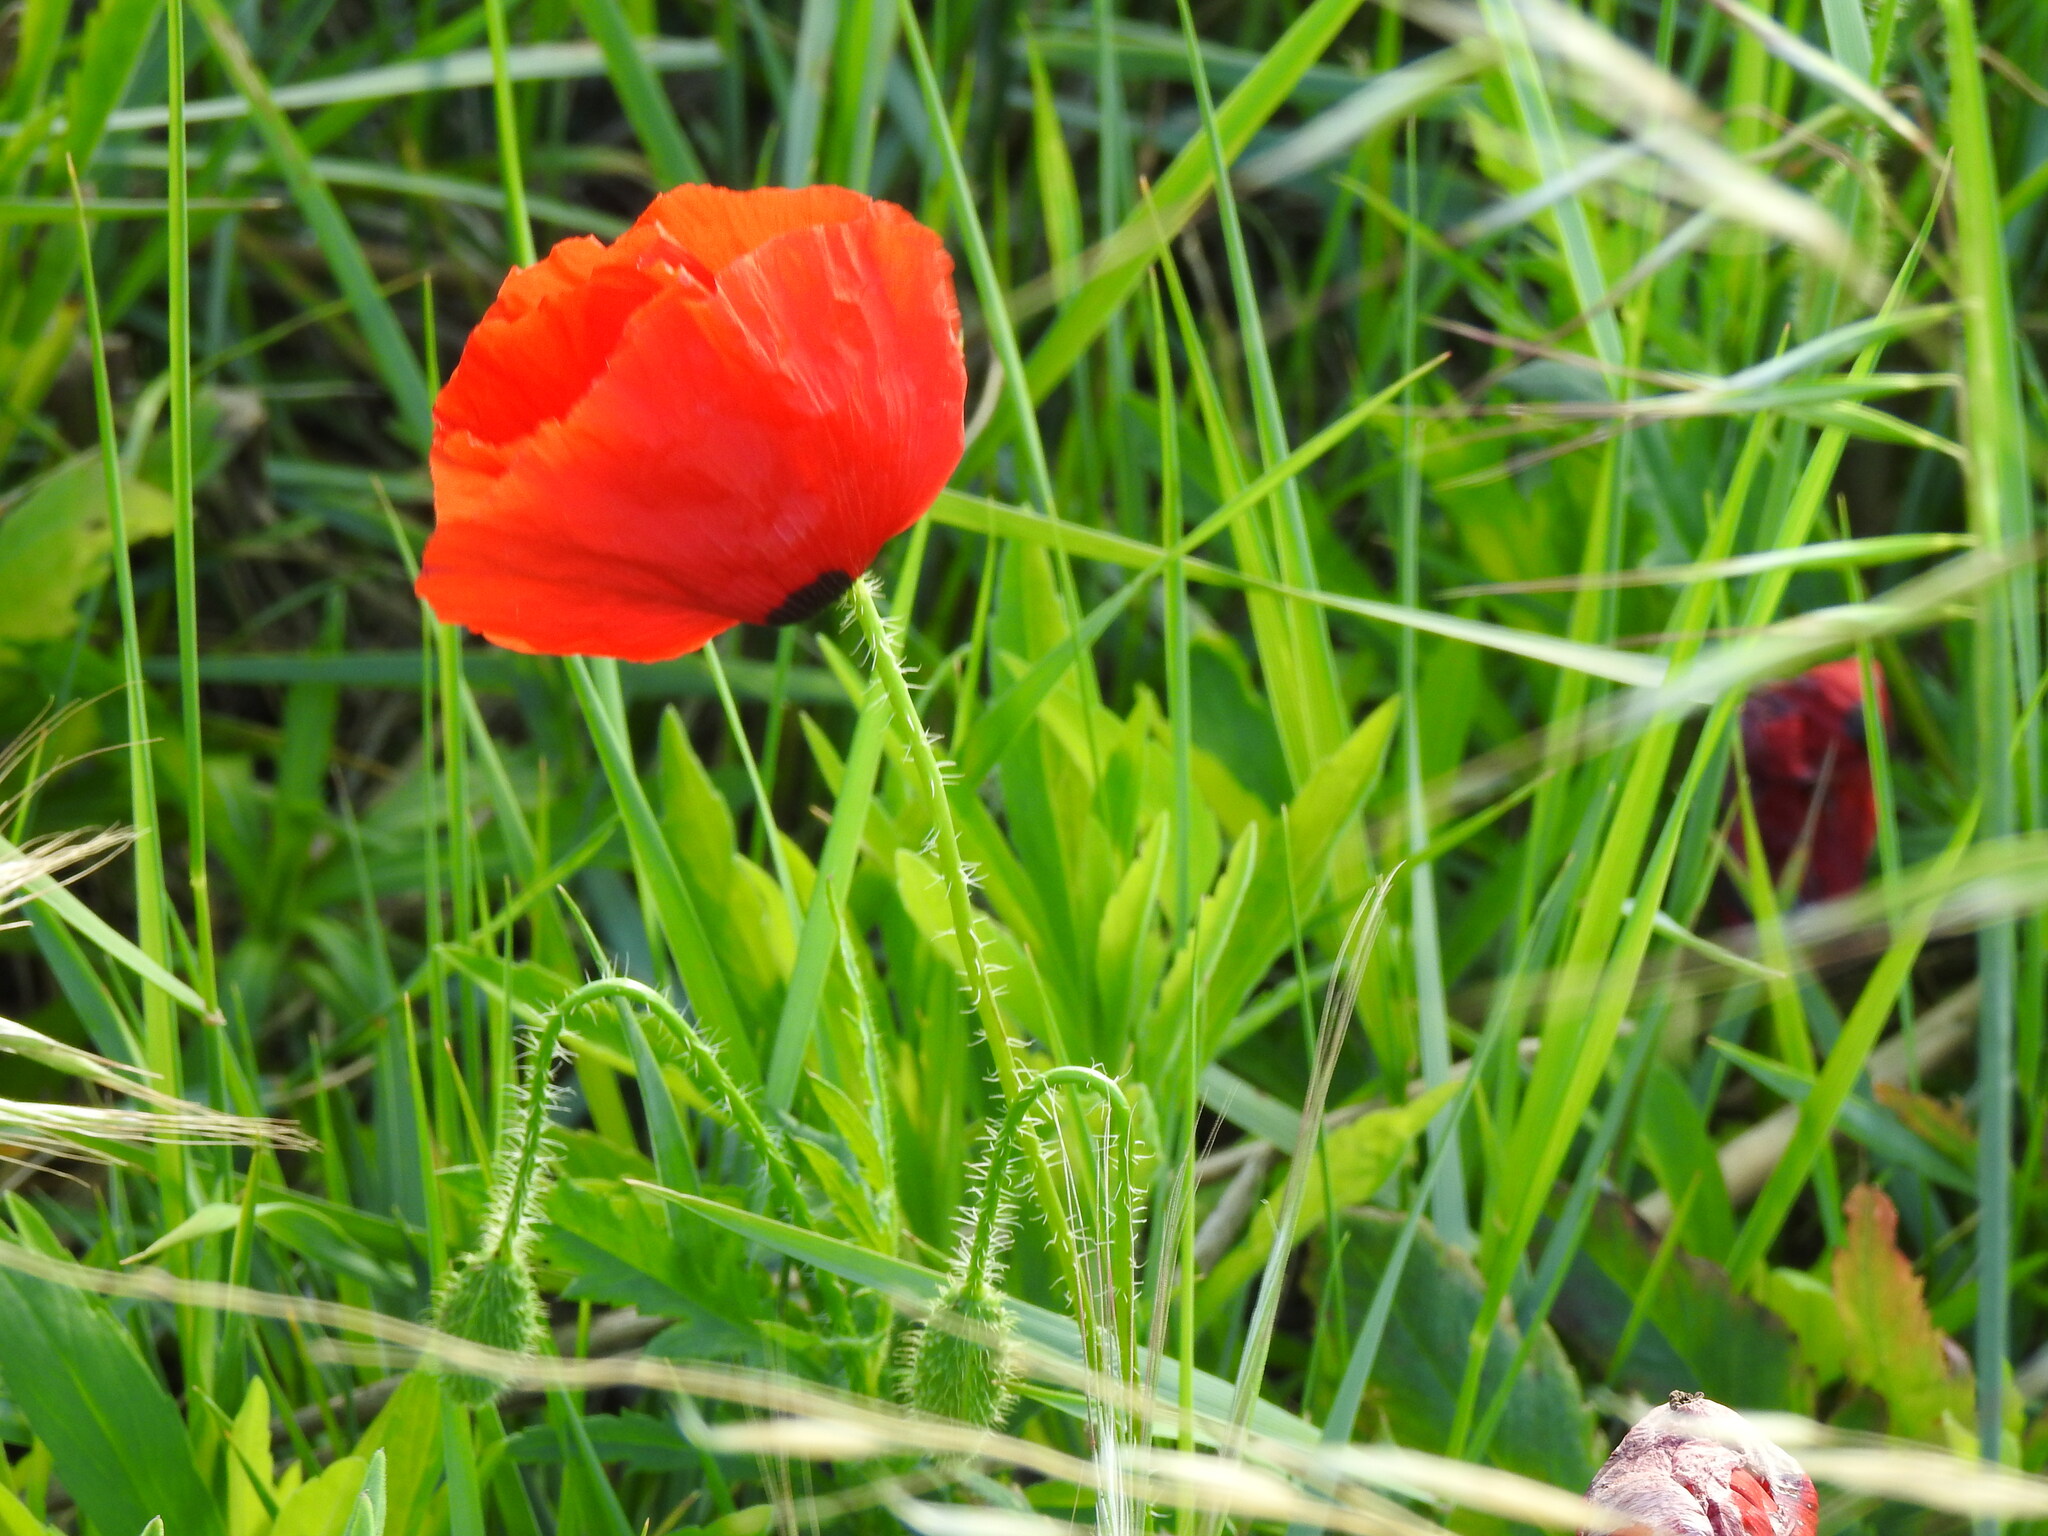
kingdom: Plantae
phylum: Tracheophyta
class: Magnoliopsida
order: Ranunculales
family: Papaveraceae
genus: Papaver
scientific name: Papaver rhoeas
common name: Corn poppy
